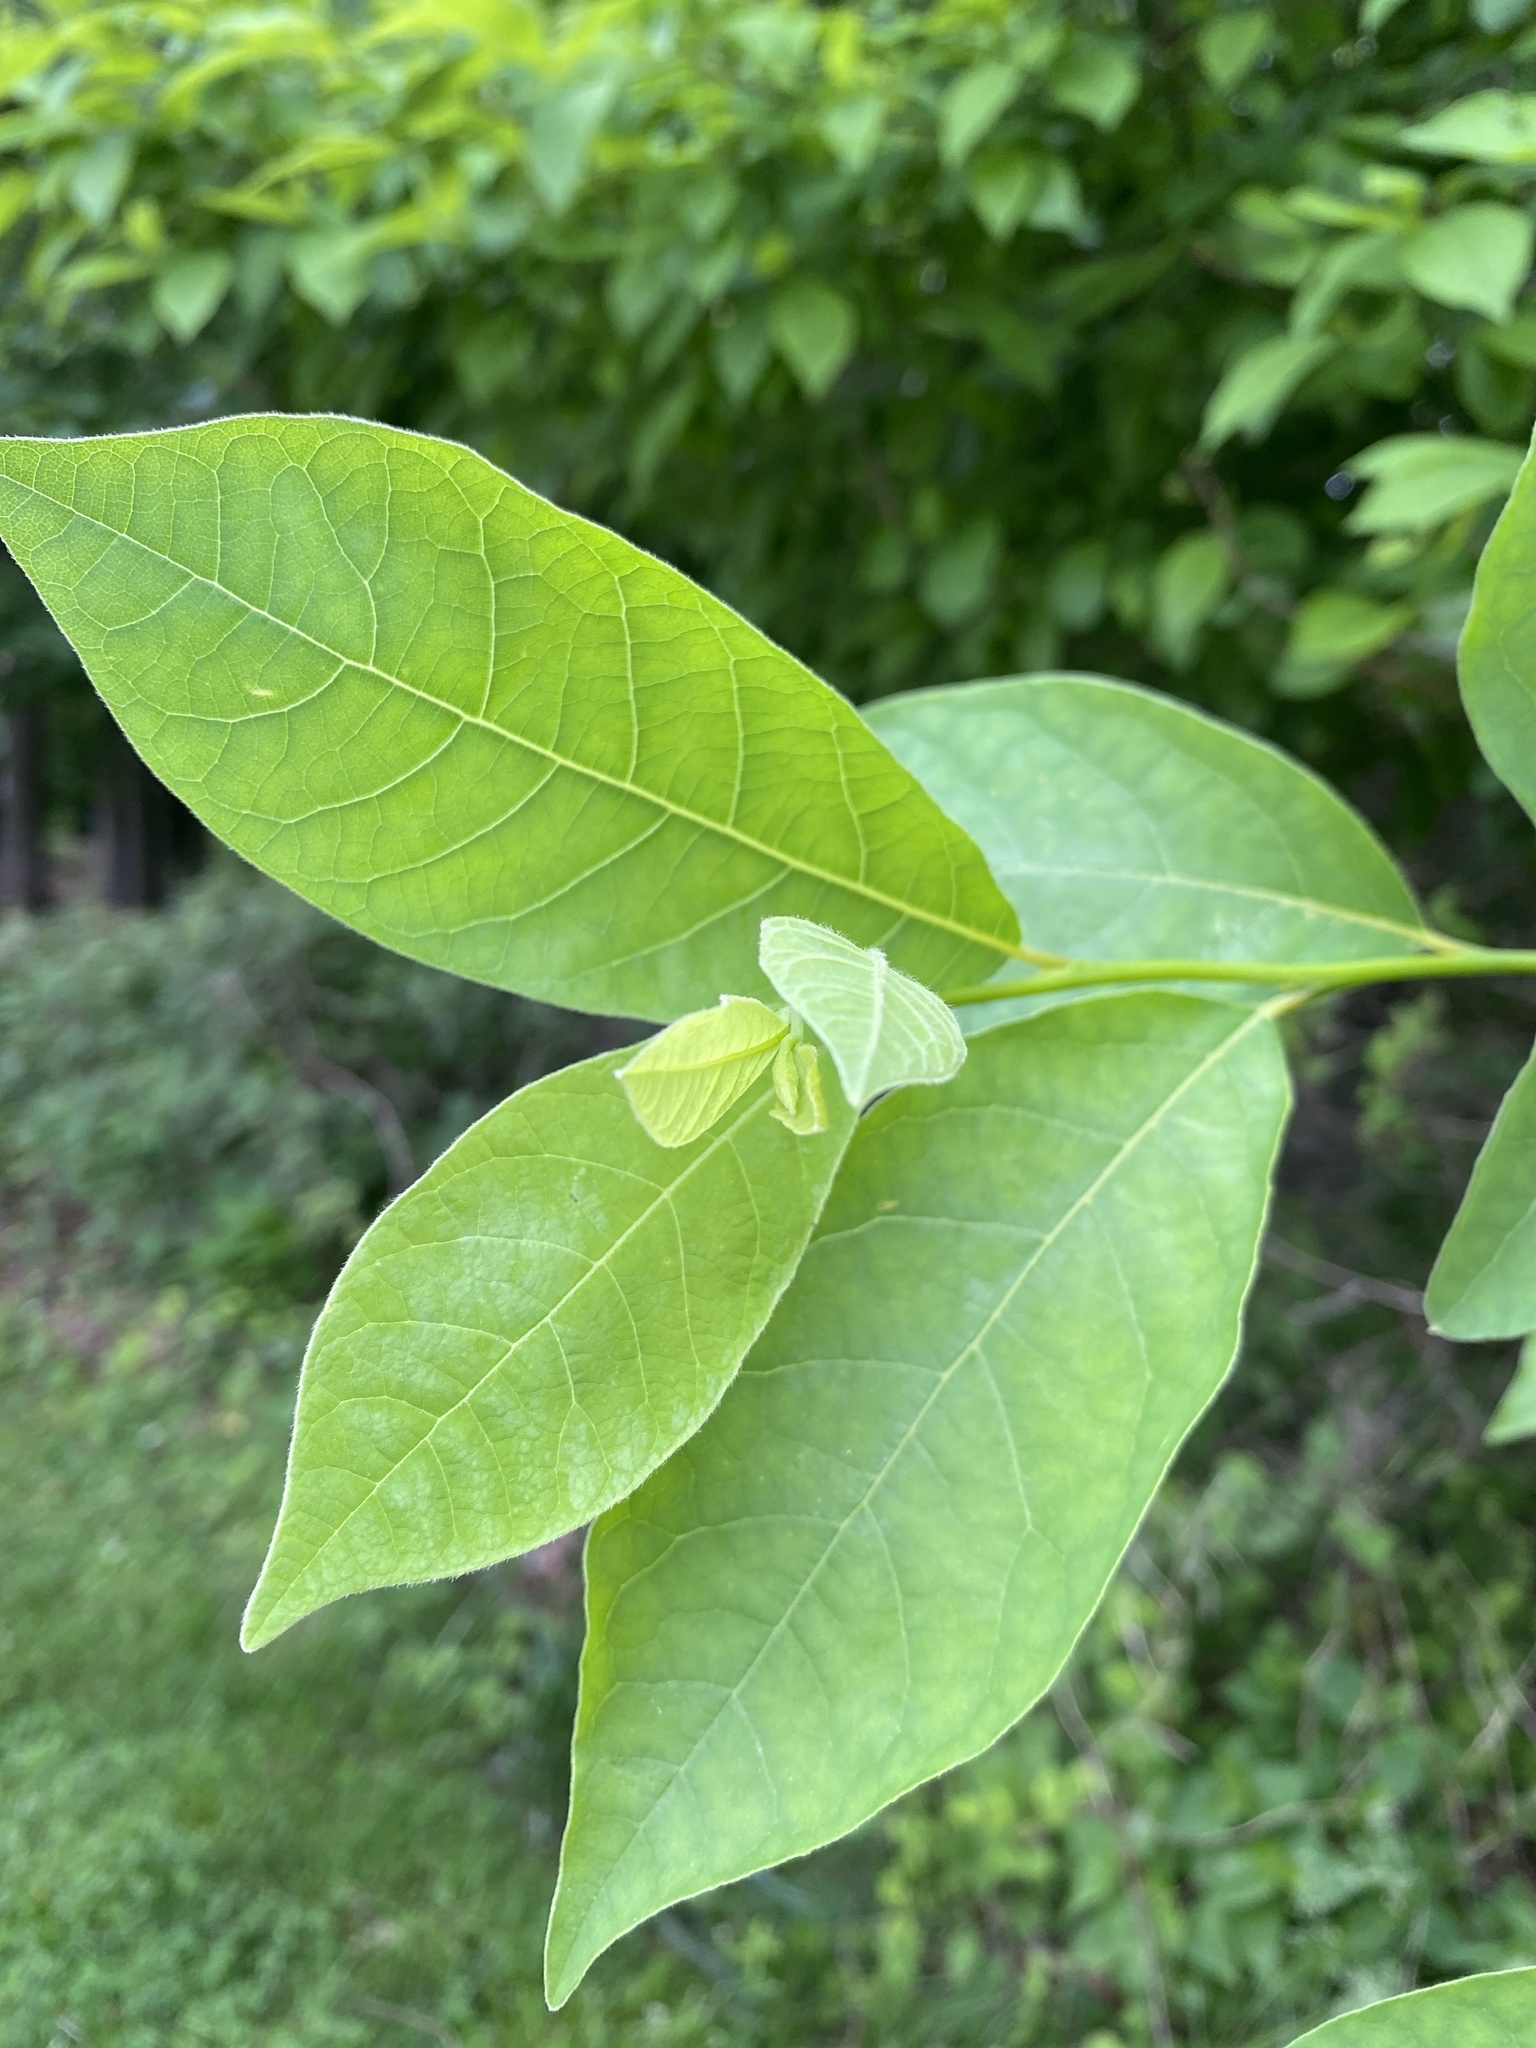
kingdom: Plantae
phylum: Tracheophyta
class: Magnoliopsida
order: Laurales
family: Lauraceae
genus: Lindera
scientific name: Lindera benzoin
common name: Spicebush
